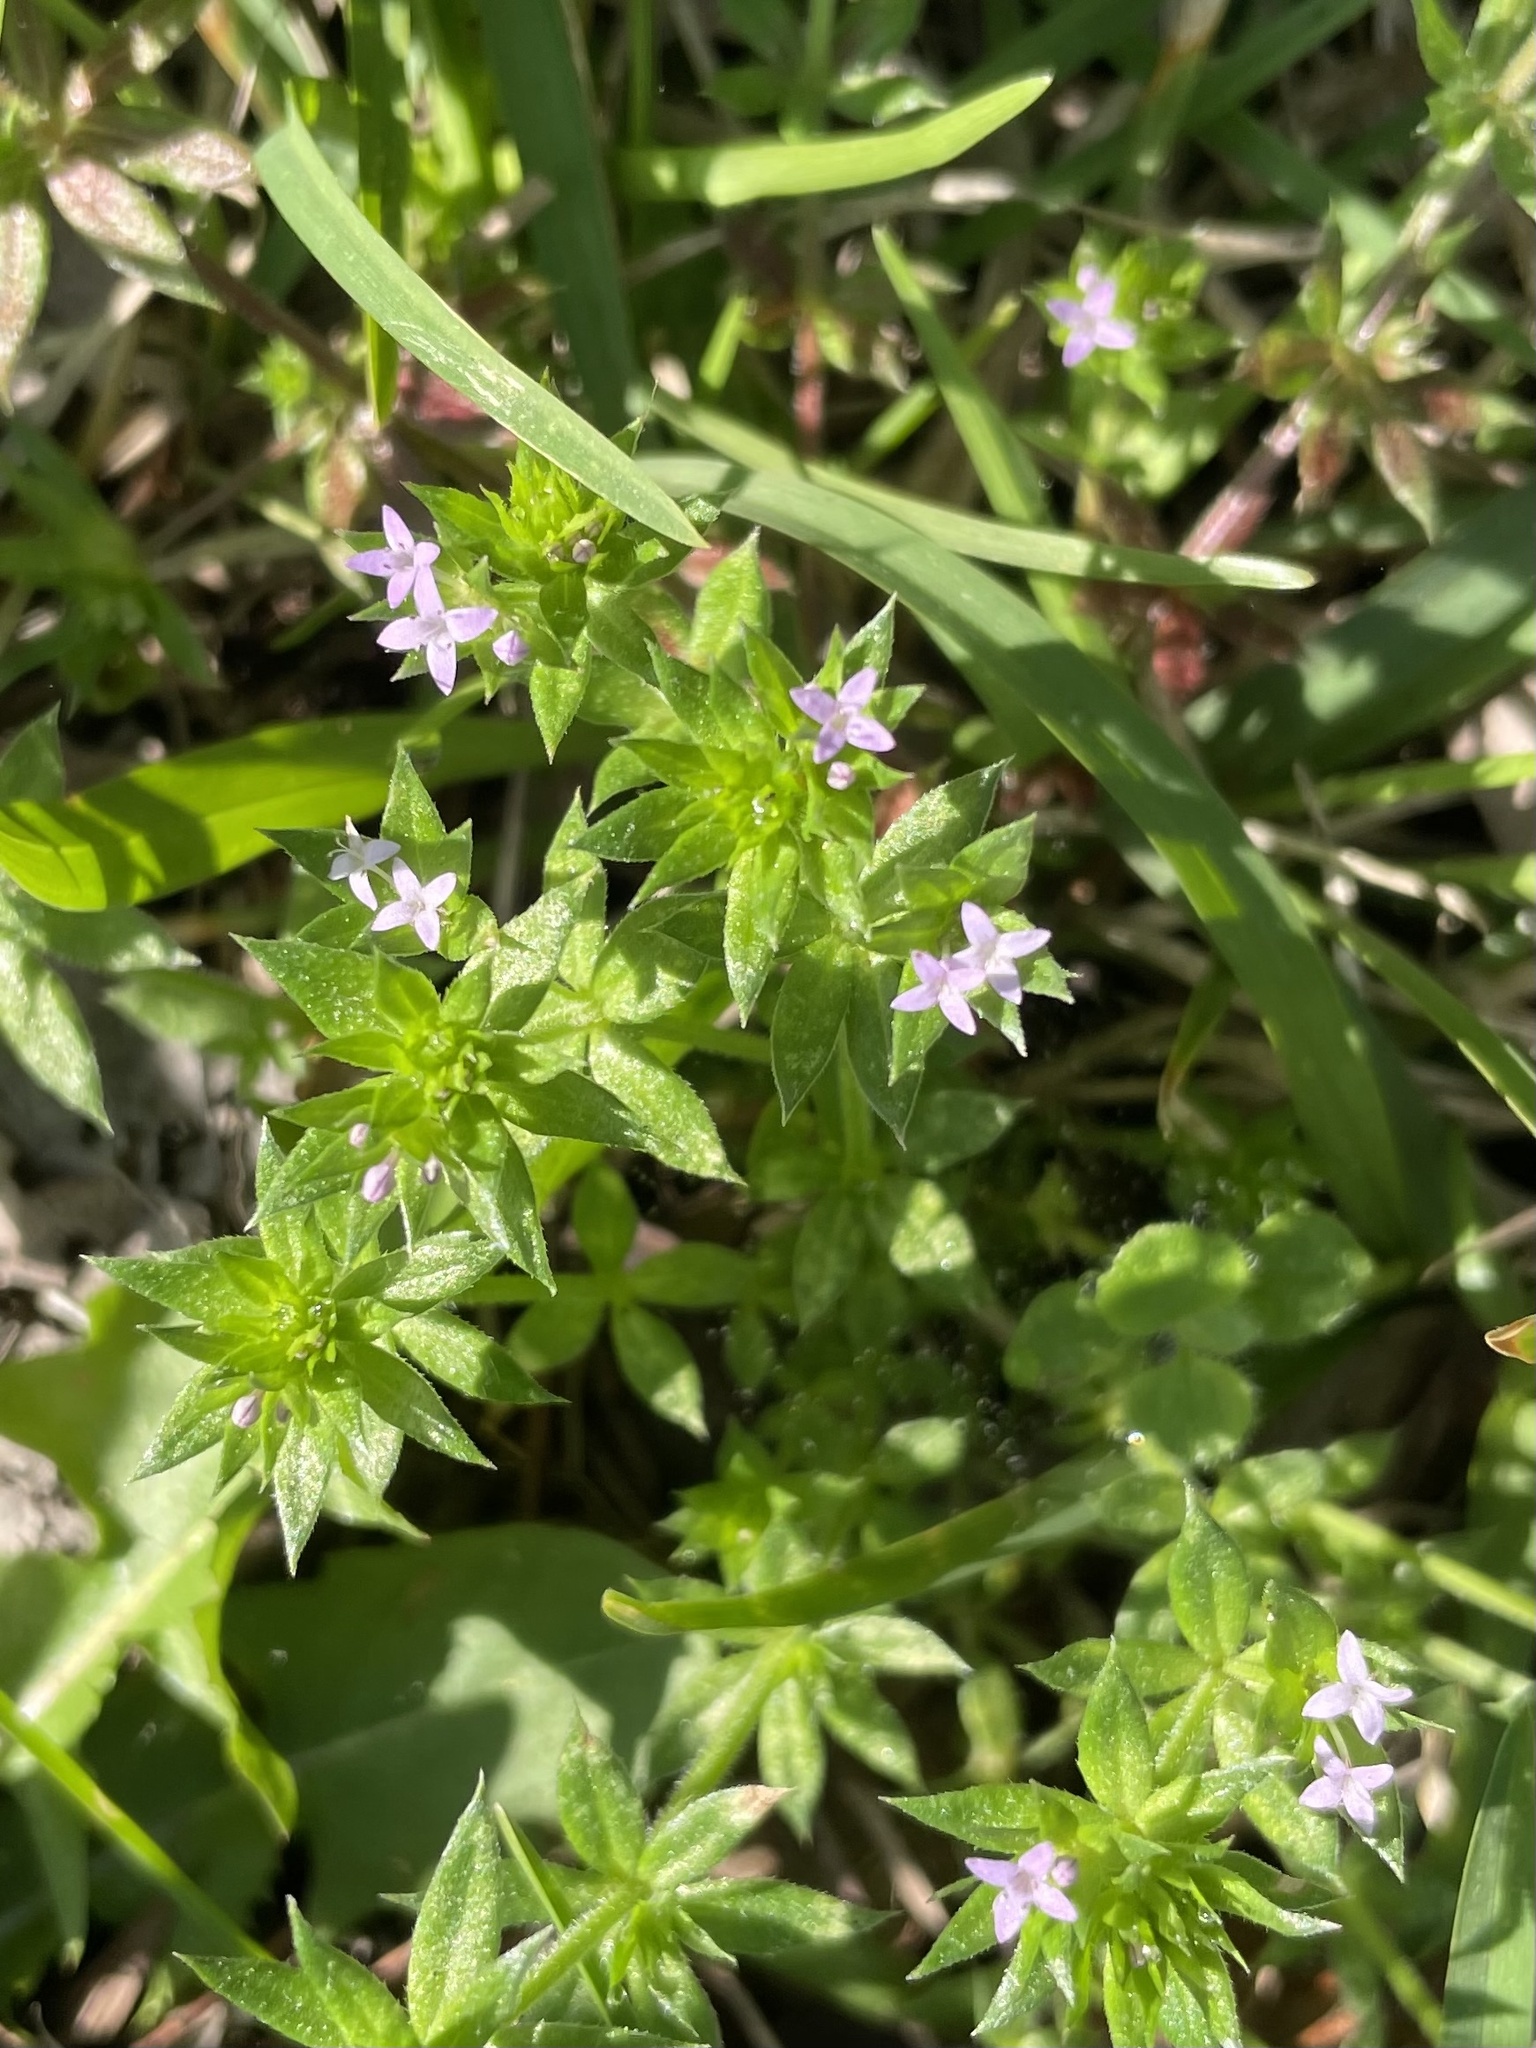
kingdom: Plantae
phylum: Tracheophyta
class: Magnoliopsida
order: Gentianales
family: Rubiaceae
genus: Sherardia
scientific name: Sherardia arvensis
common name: Field madder
